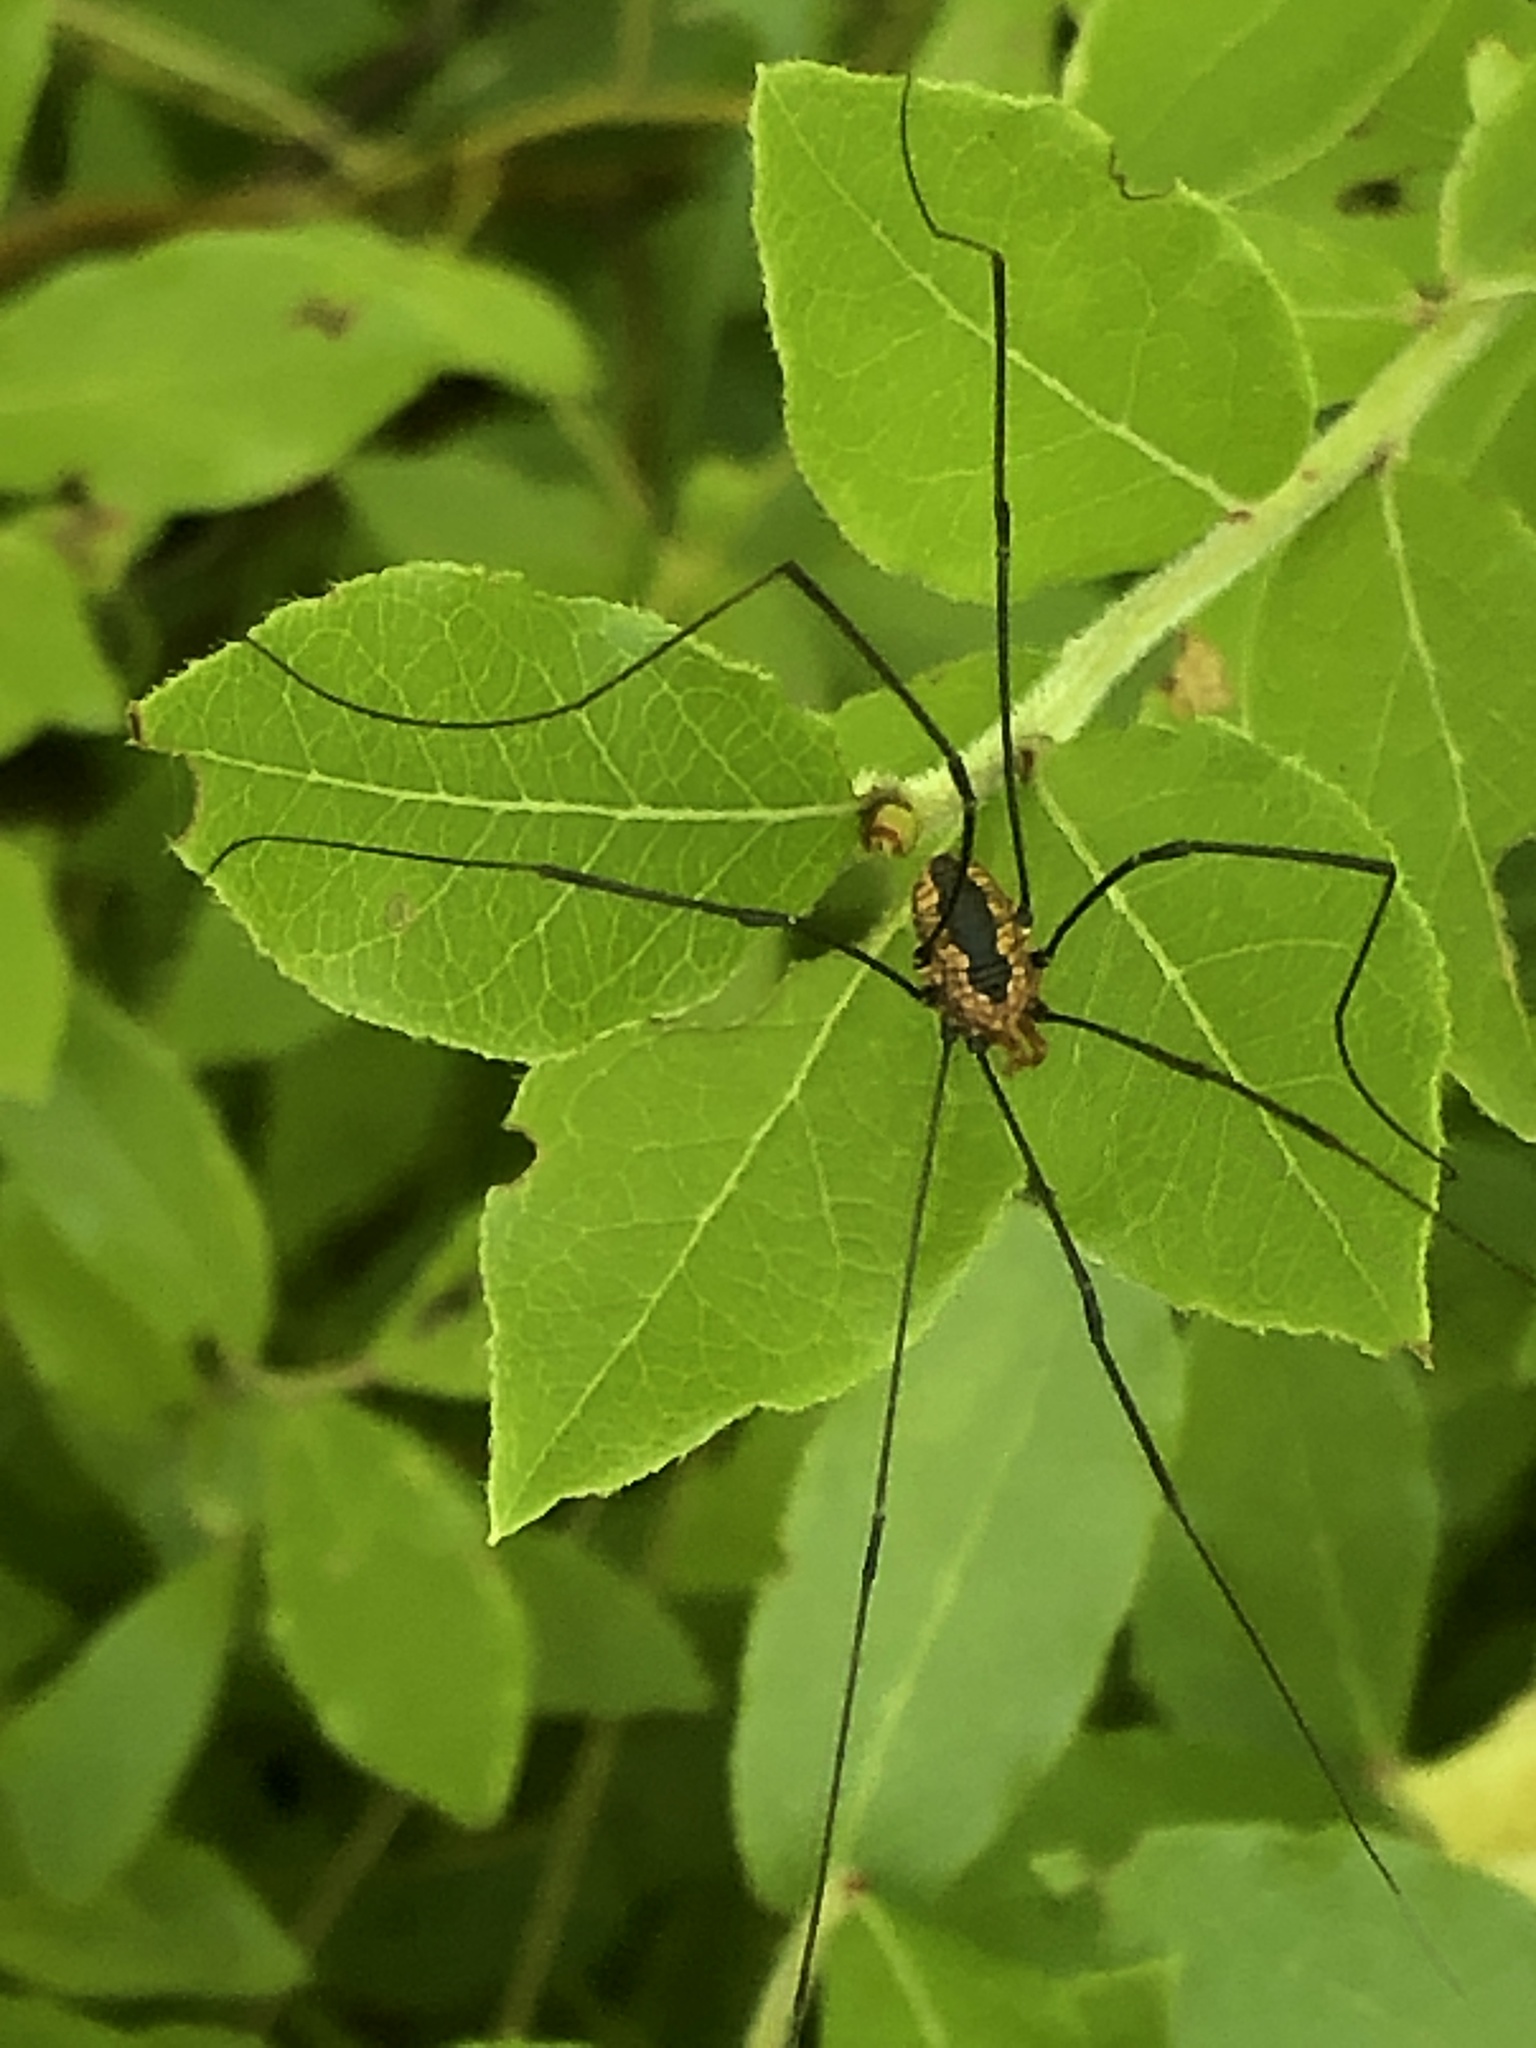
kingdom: Animalia
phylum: Arthropoda
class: Arachnida
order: Opiliones
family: Sclerosomatidae
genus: Leiobunum
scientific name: Leiobunum vittatum
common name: Eastern harvestman
